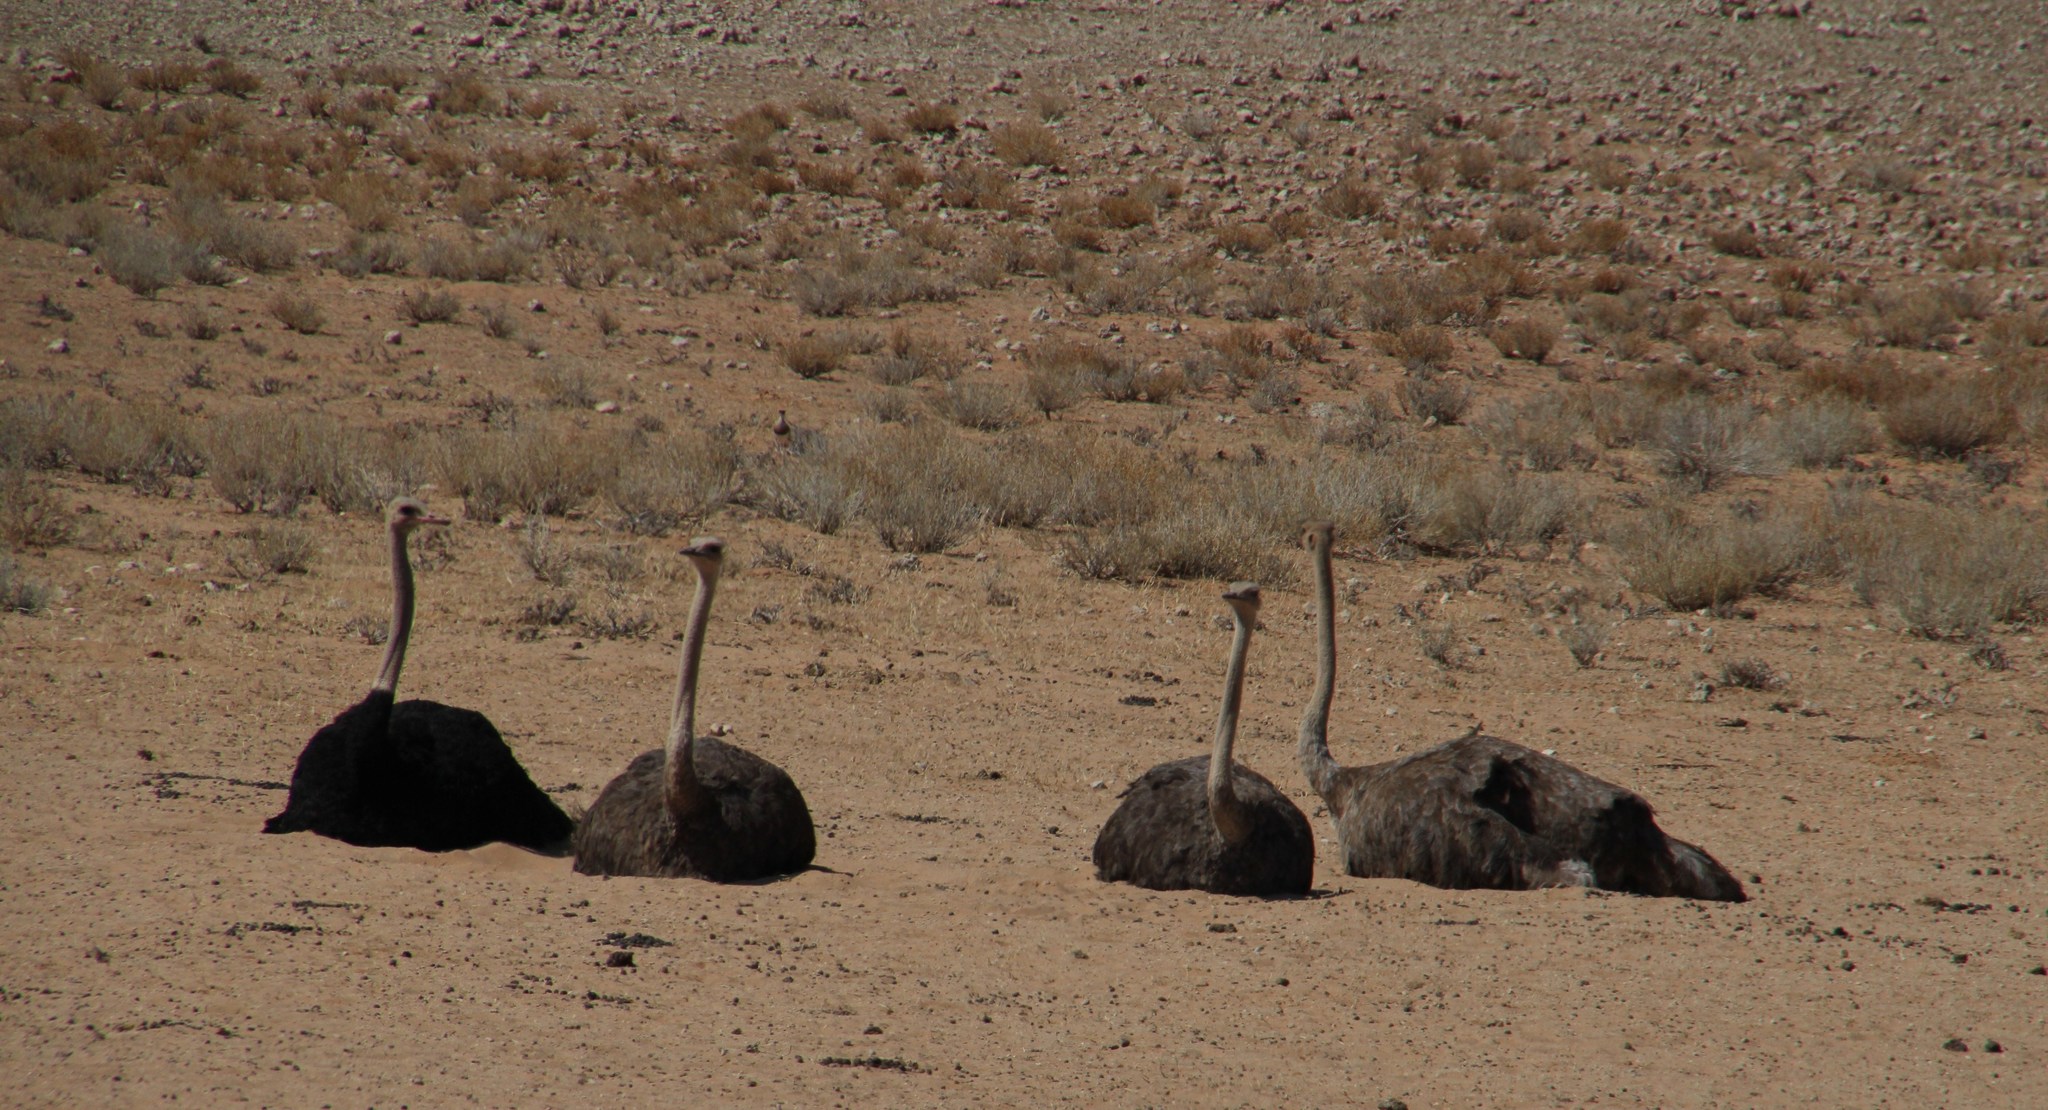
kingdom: Animalia
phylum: Chordata
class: Aves
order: Struthioniformes
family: Struthionidae
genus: Struthio
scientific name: Struthio camelus
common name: Common ostrich
